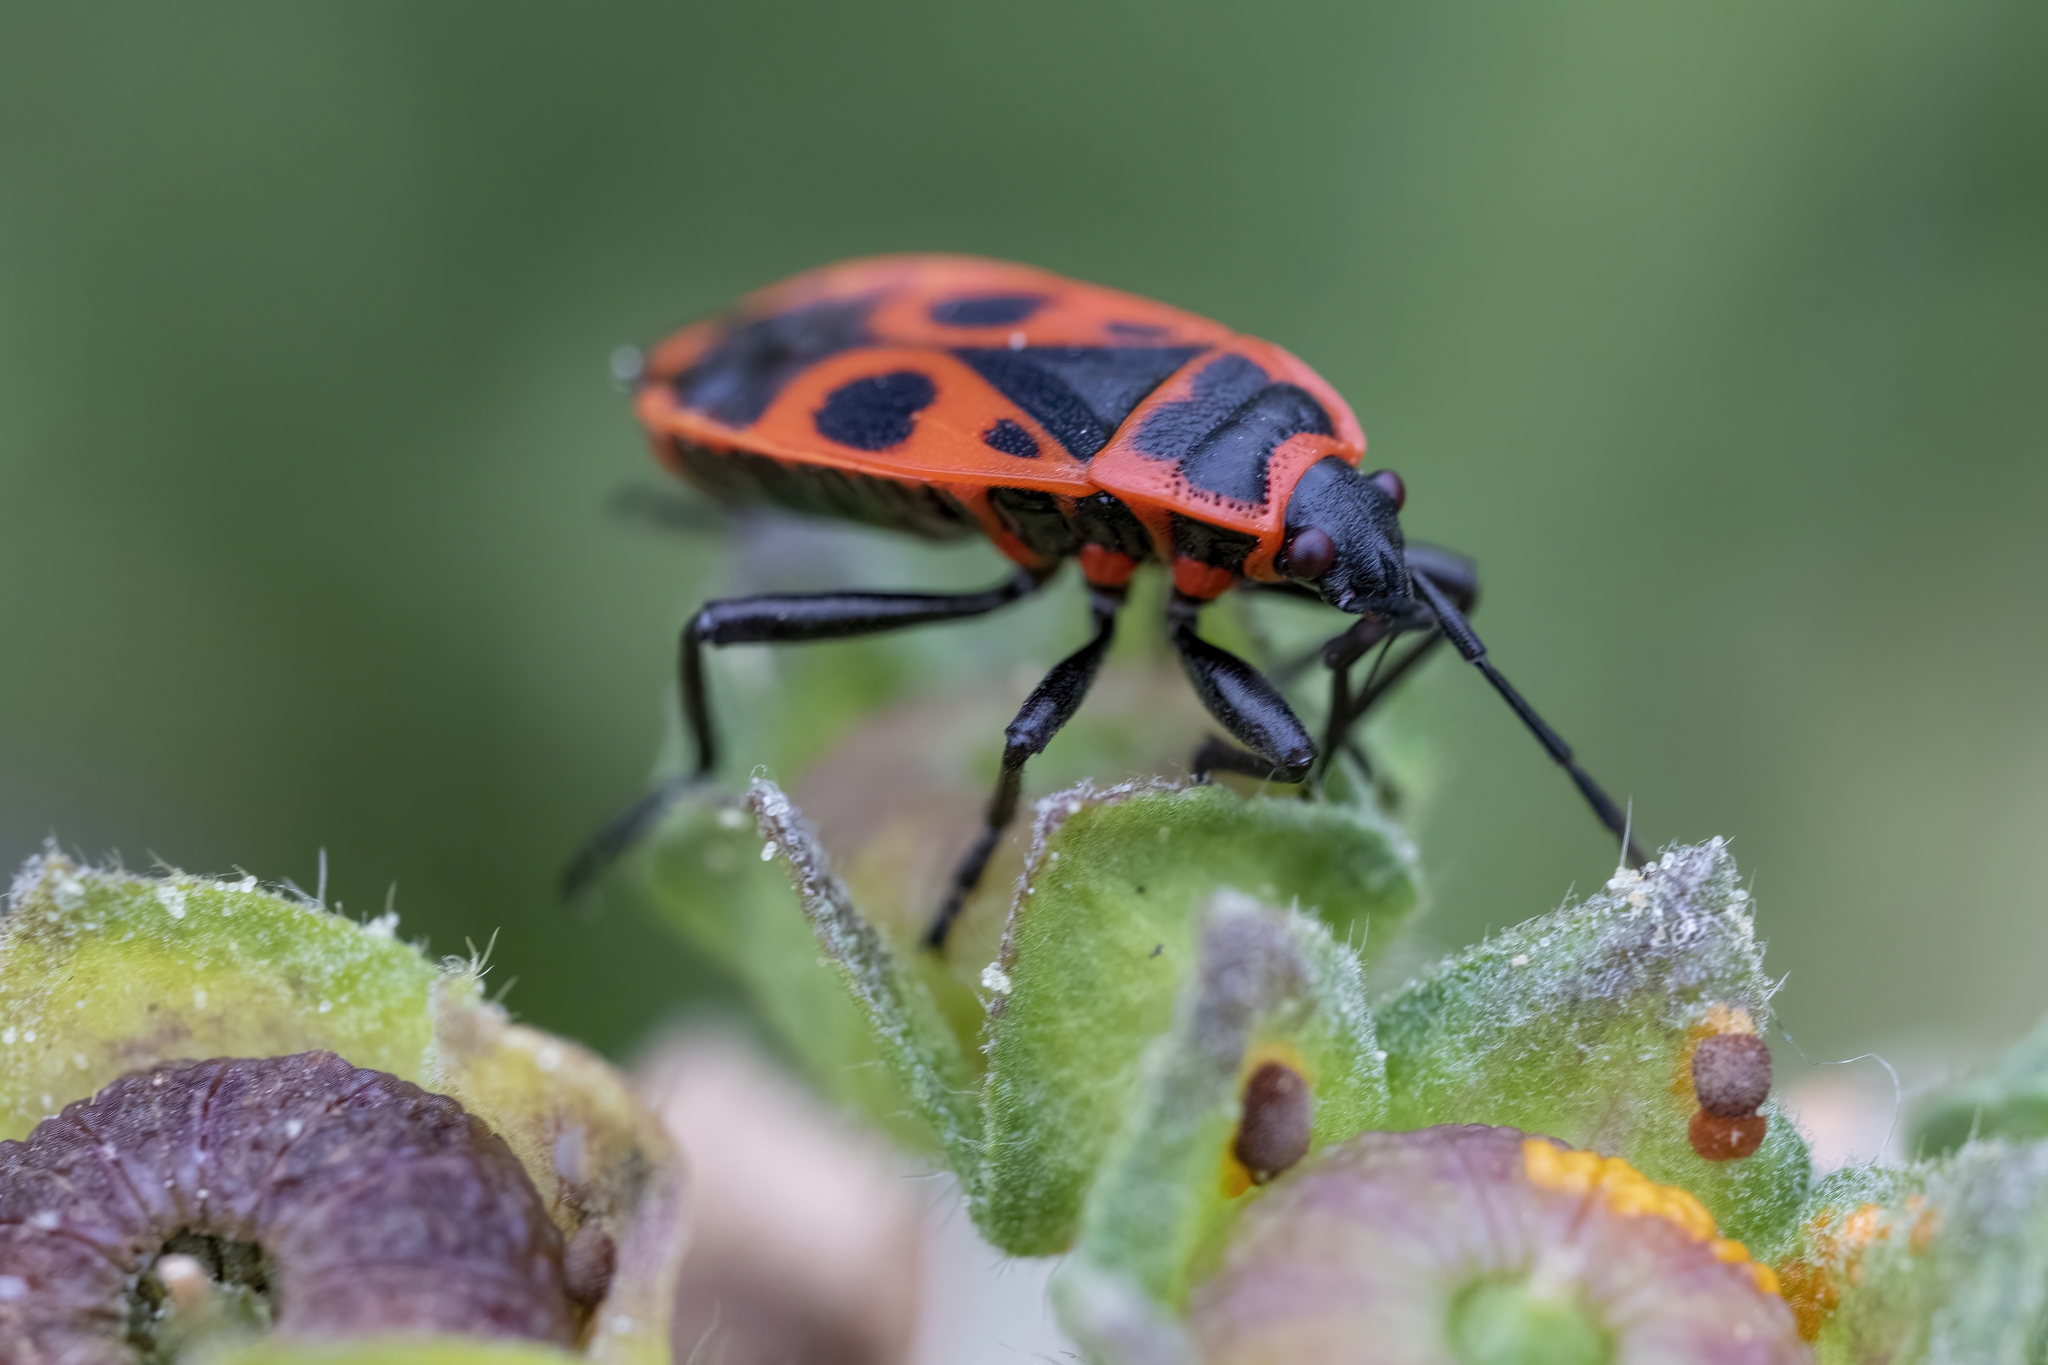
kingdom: Animalia
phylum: Arthropoda
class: Insecta
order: Hemiptera
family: Pyrrhocoridae
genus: Pyrrhocoris
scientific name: Pyrrhocoris apterus
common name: Firebug
